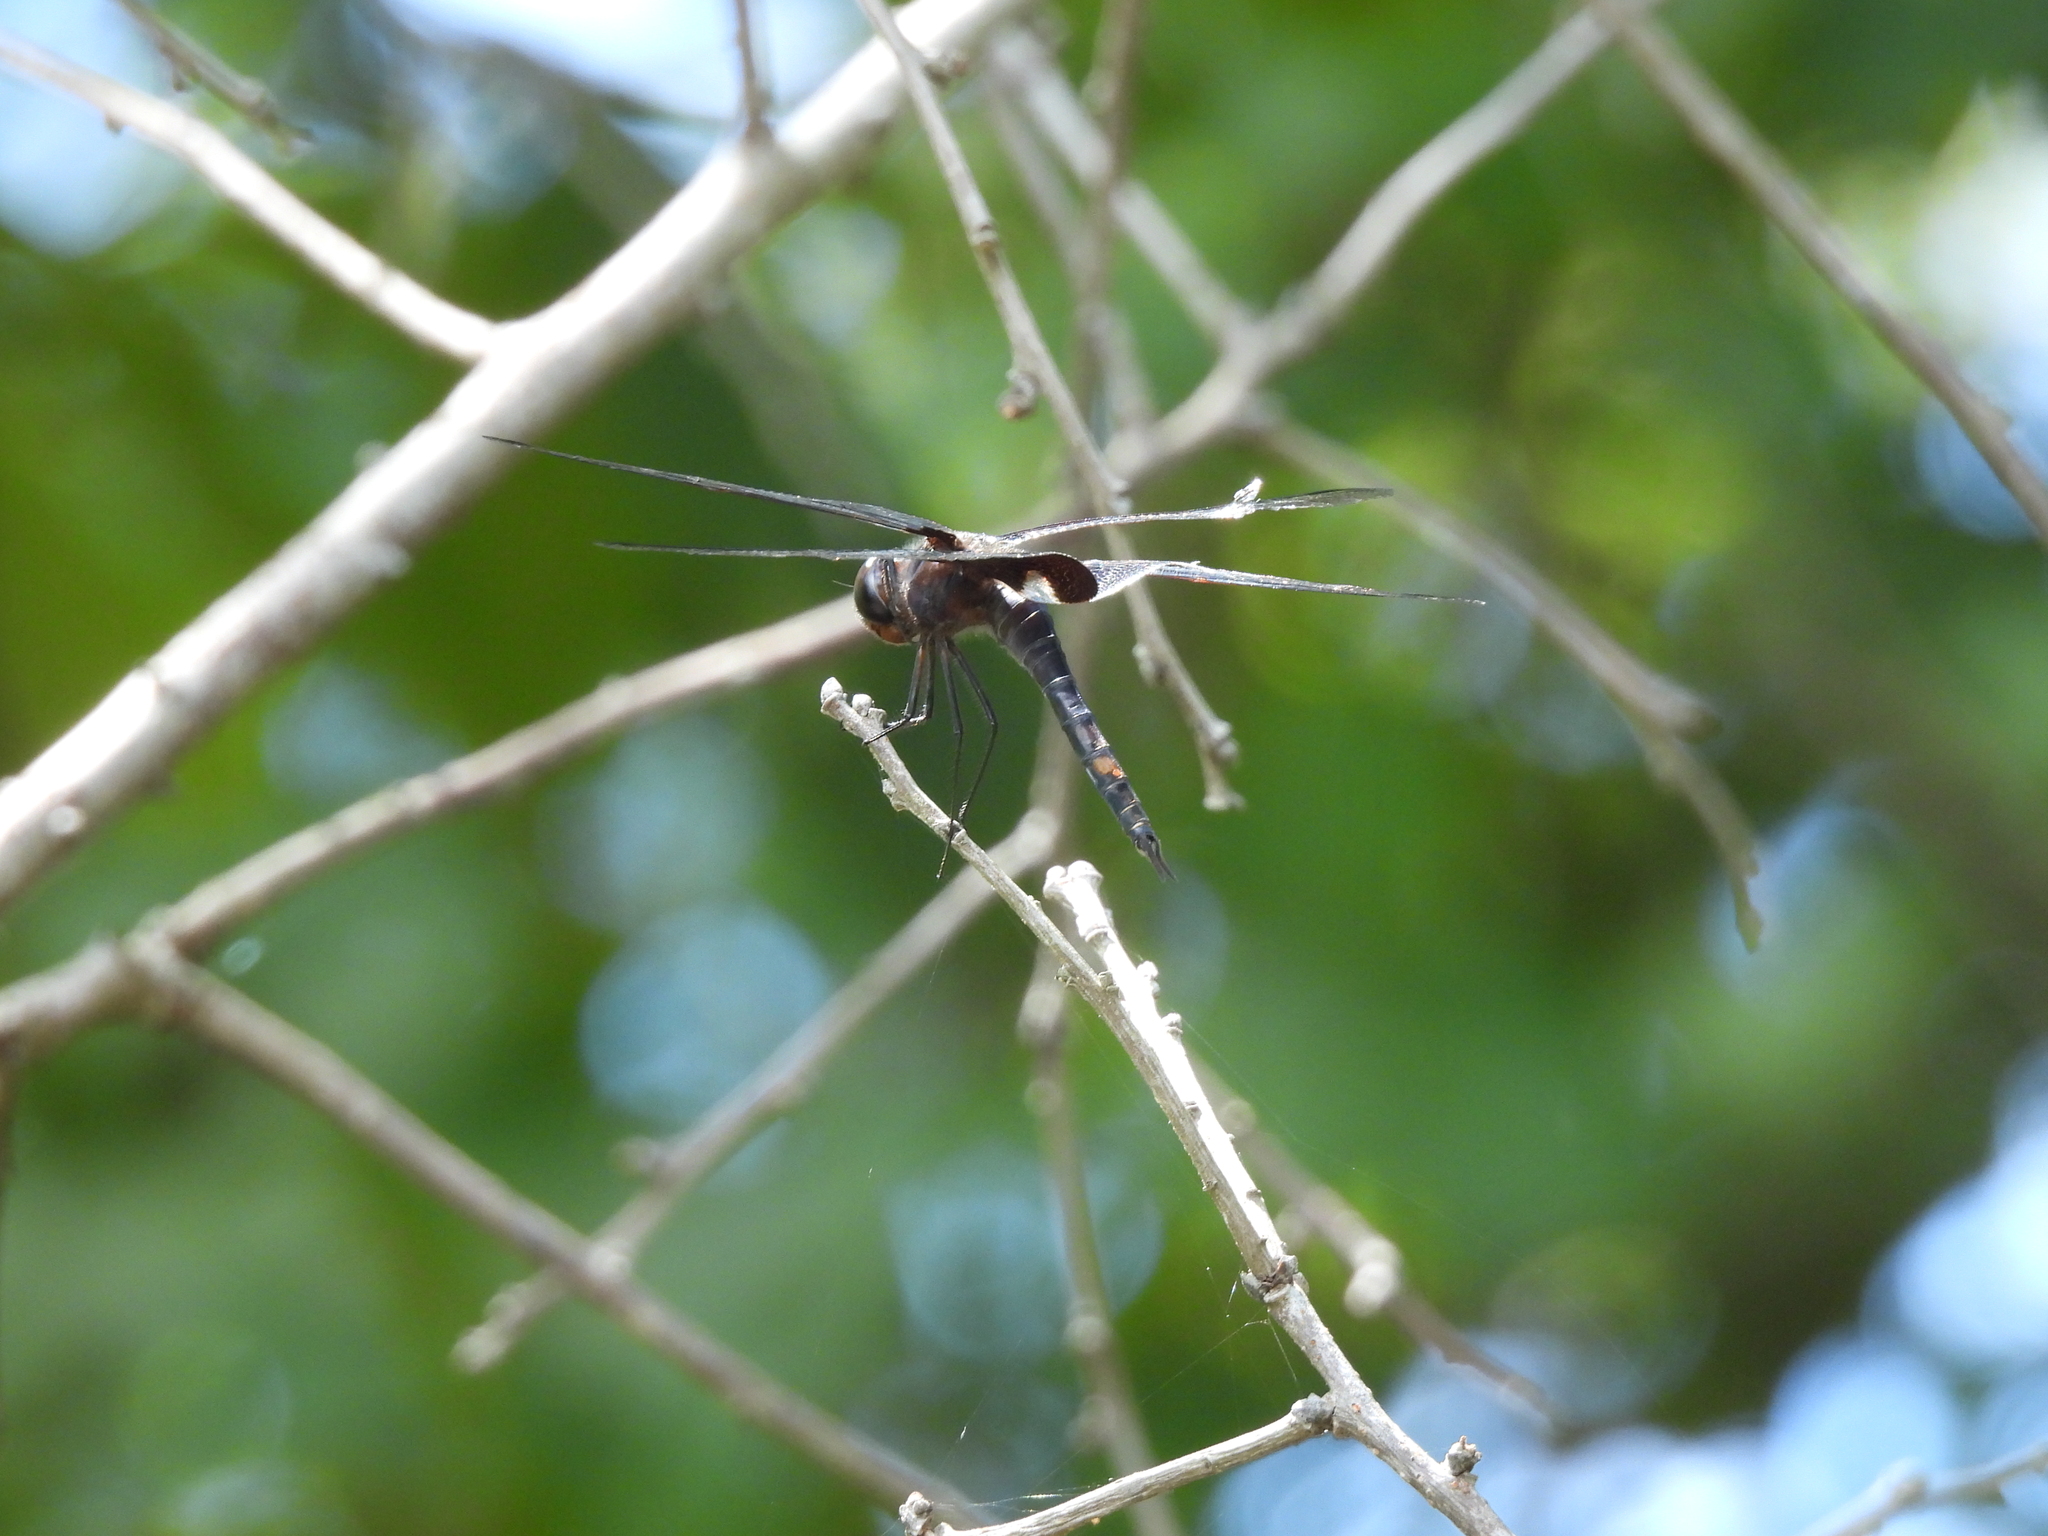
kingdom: Animalia
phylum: Arthropoda
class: Insecta
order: Odonata
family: Libellulidae
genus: Tramea
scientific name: Tramea lacerata
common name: Black saddlebags
